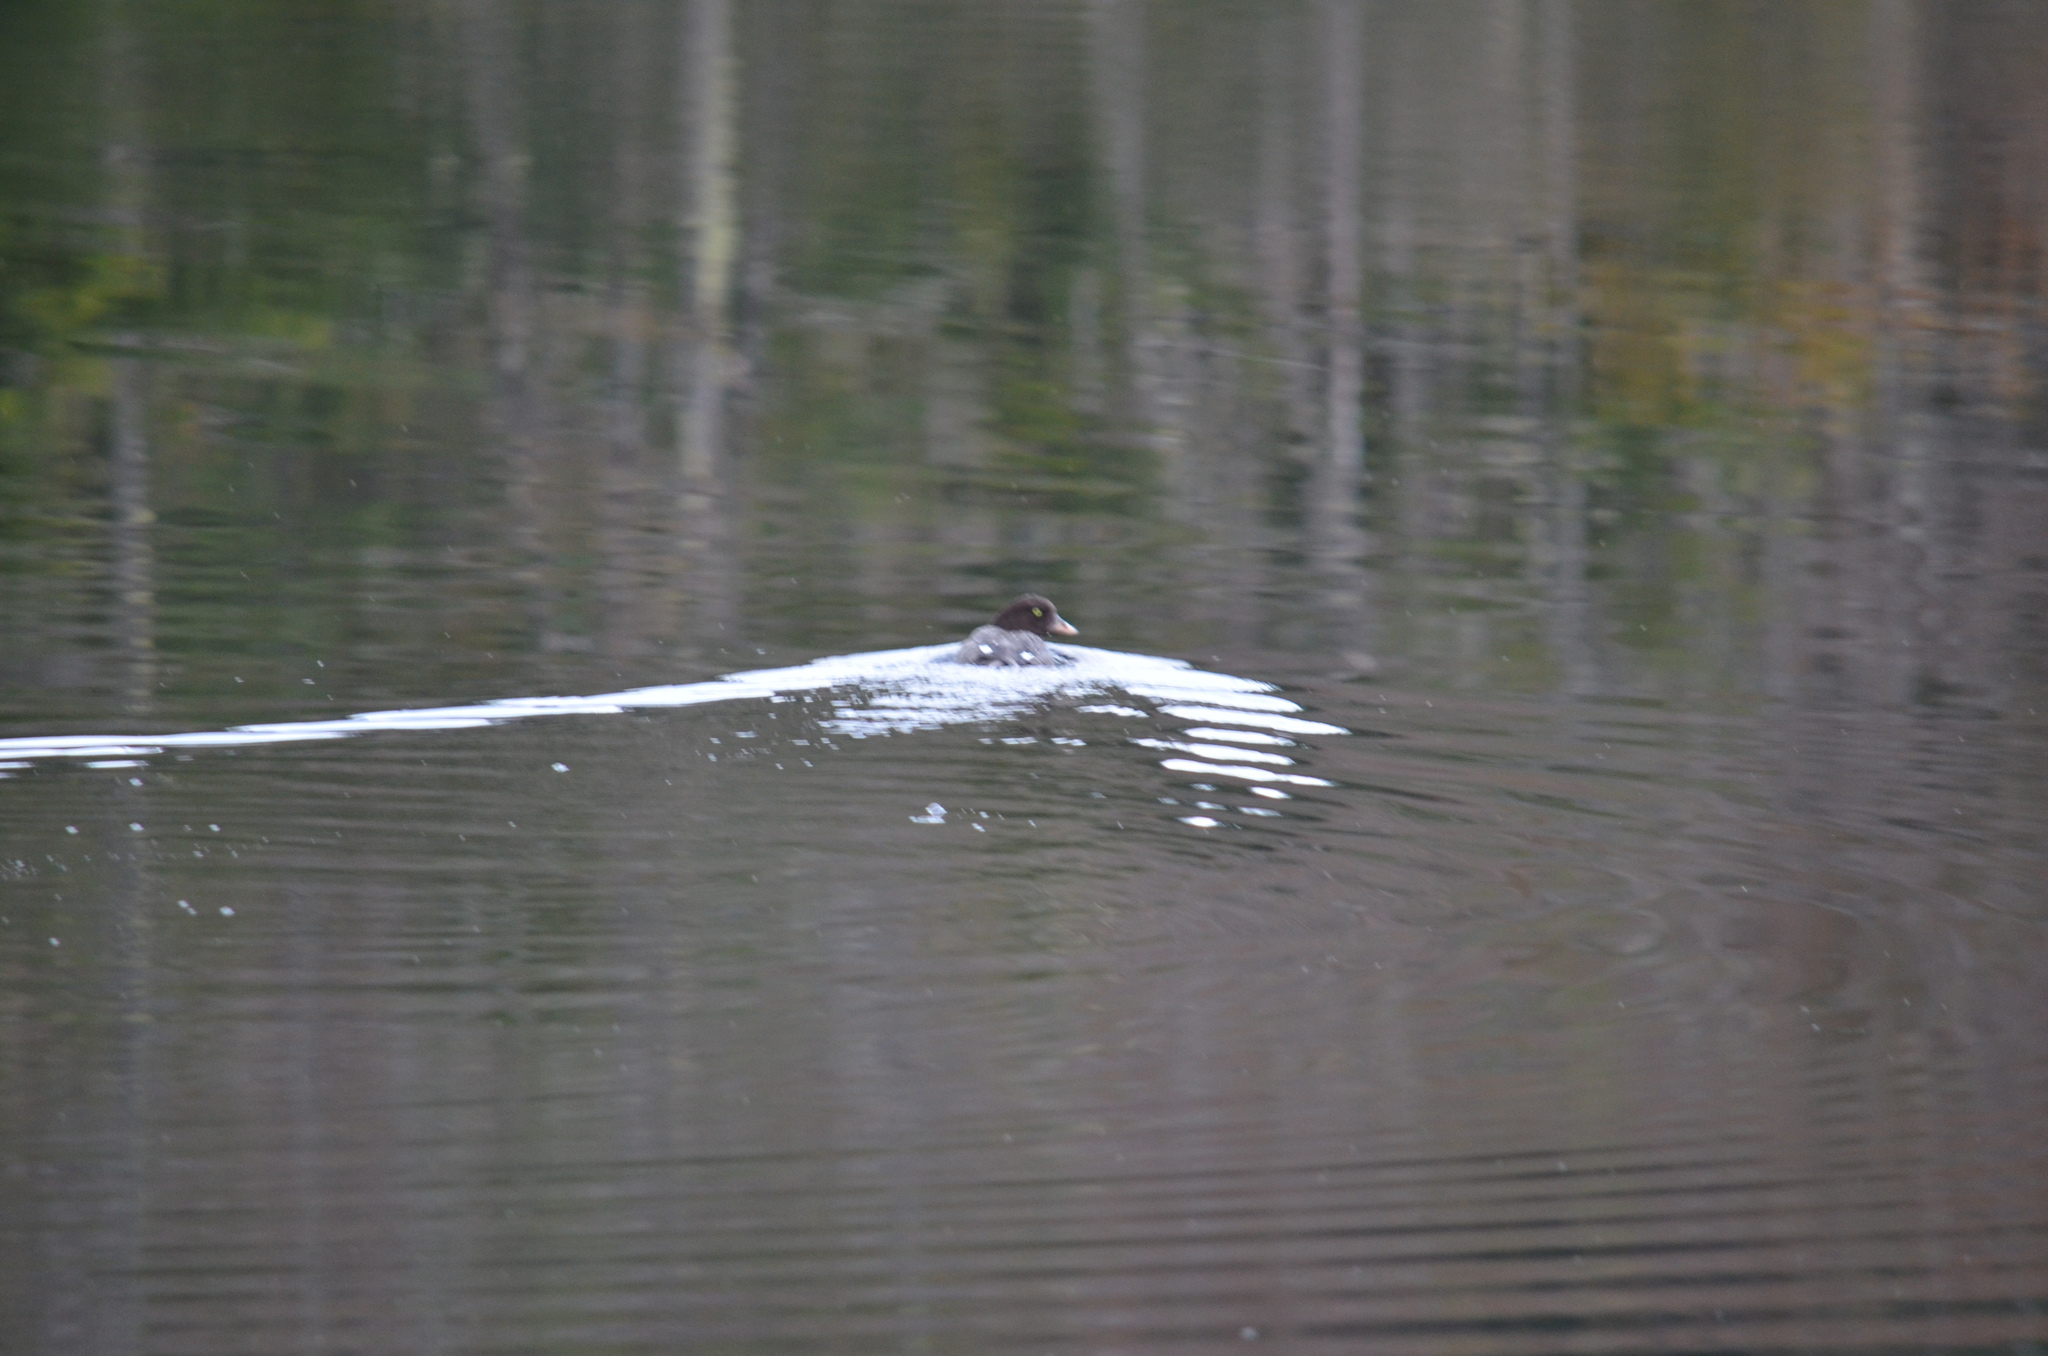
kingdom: Animalia
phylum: Chordata
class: Aves
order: Anseriformes
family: Anatidae
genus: Bucephala
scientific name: Bucephala islandica
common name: Barrow's goldeneye
